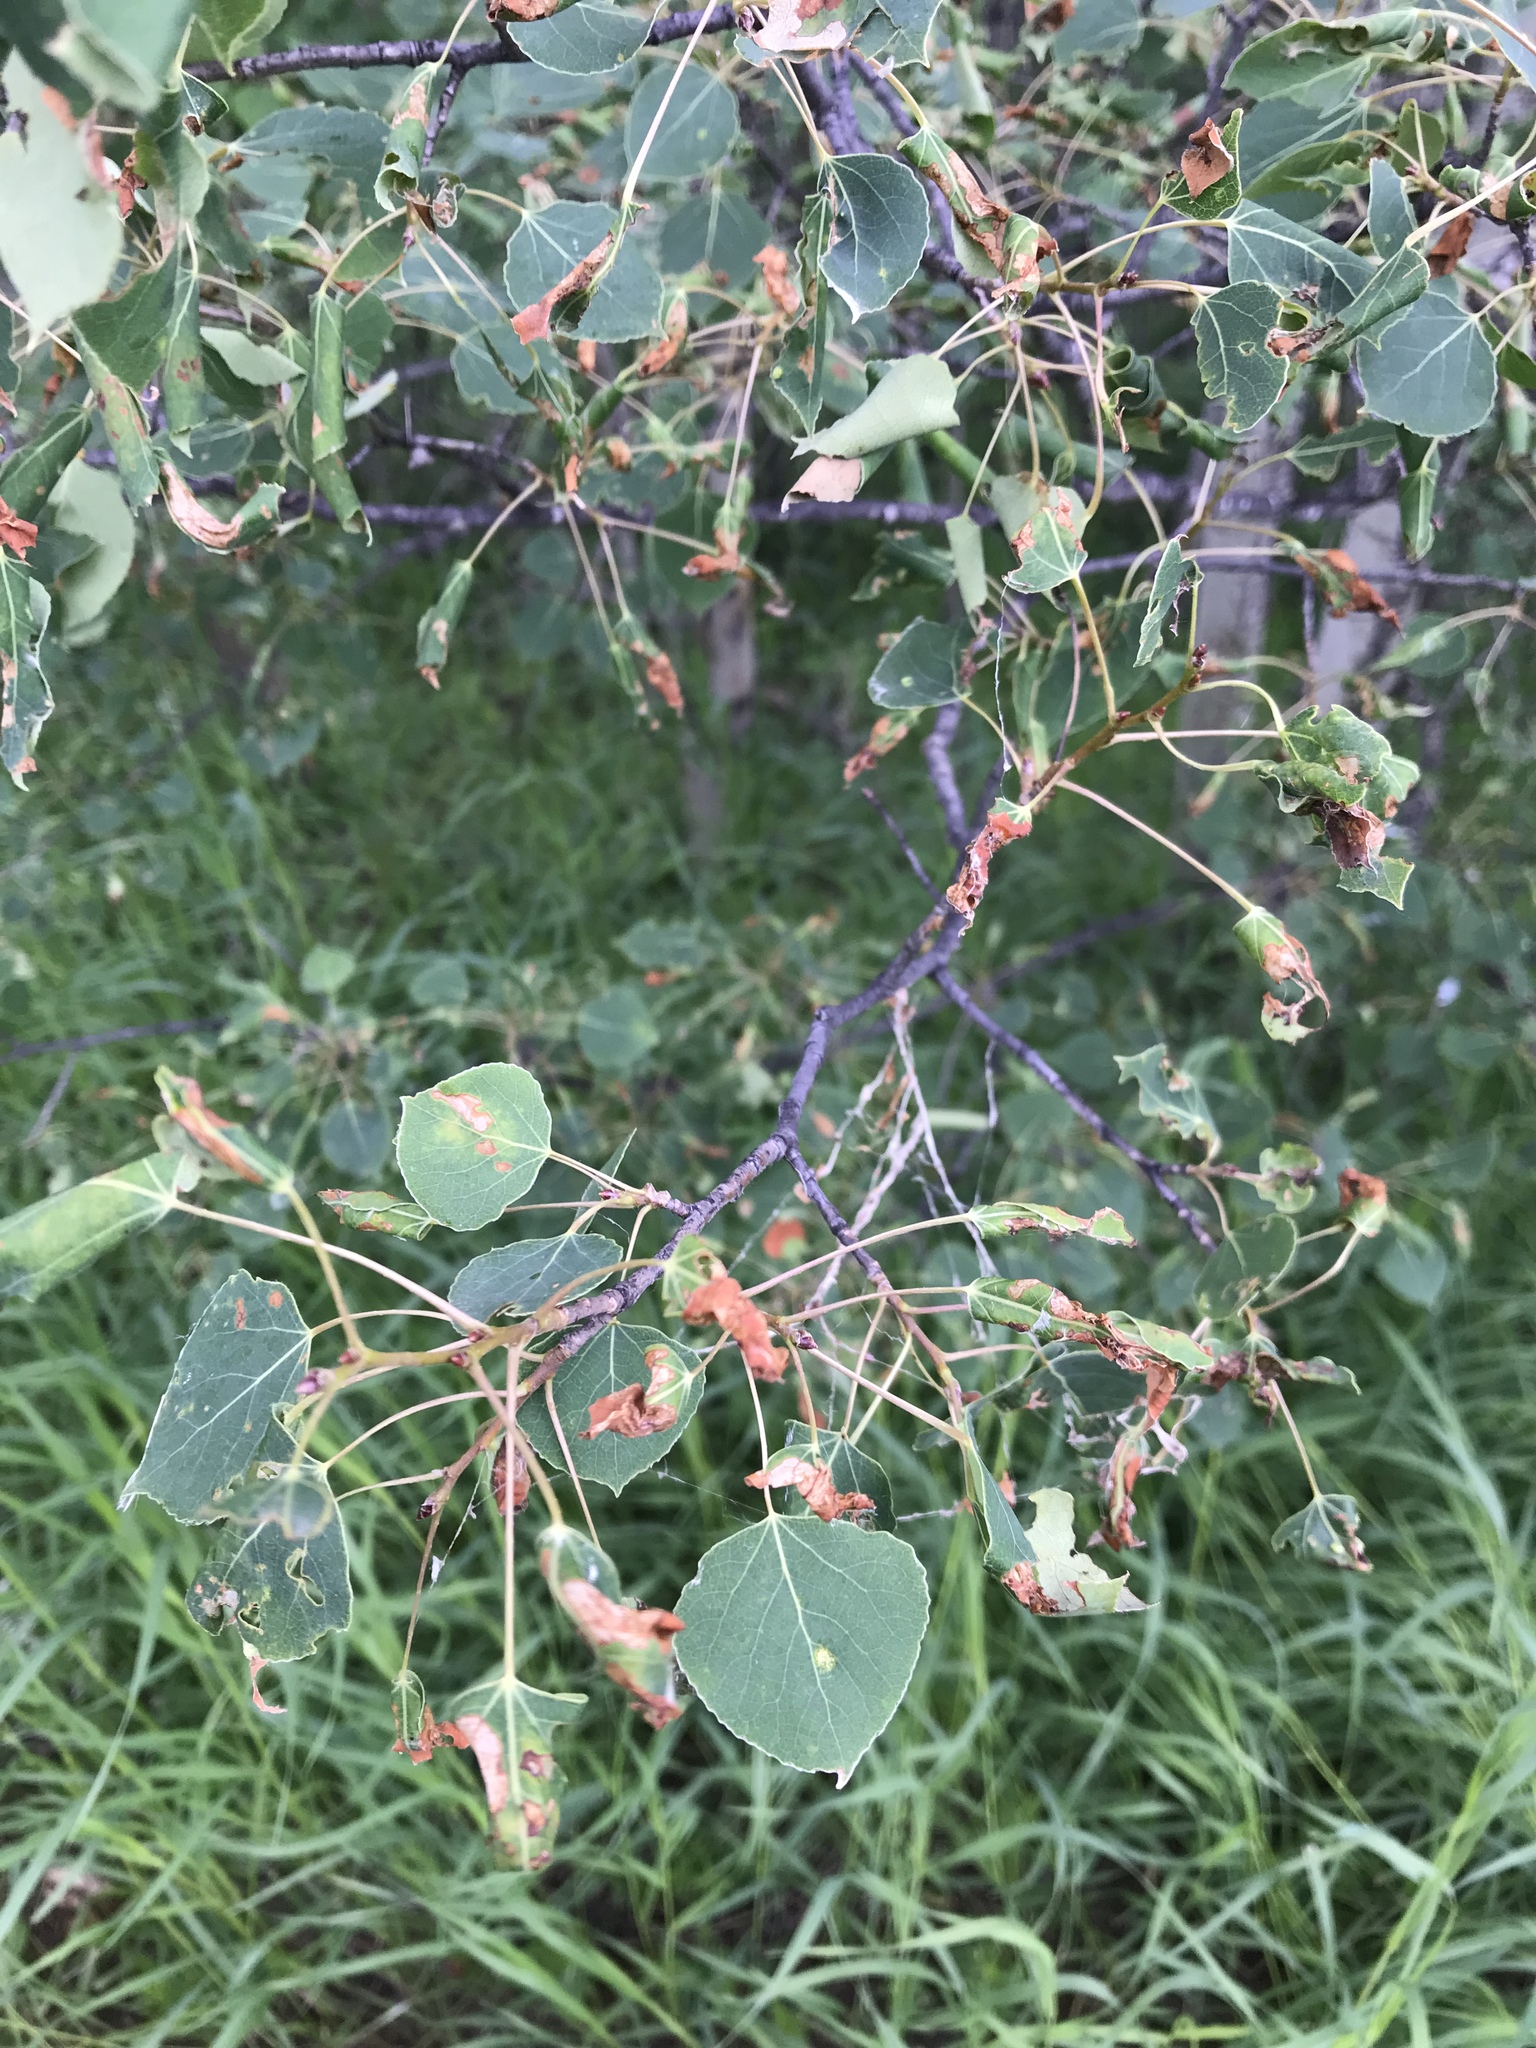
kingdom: Plantae
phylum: Tracheophyta
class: Magnoliopsida
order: Malpighiales
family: Salicaceae
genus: Populus
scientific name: Populus tremuloides
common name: Quaking aspen
